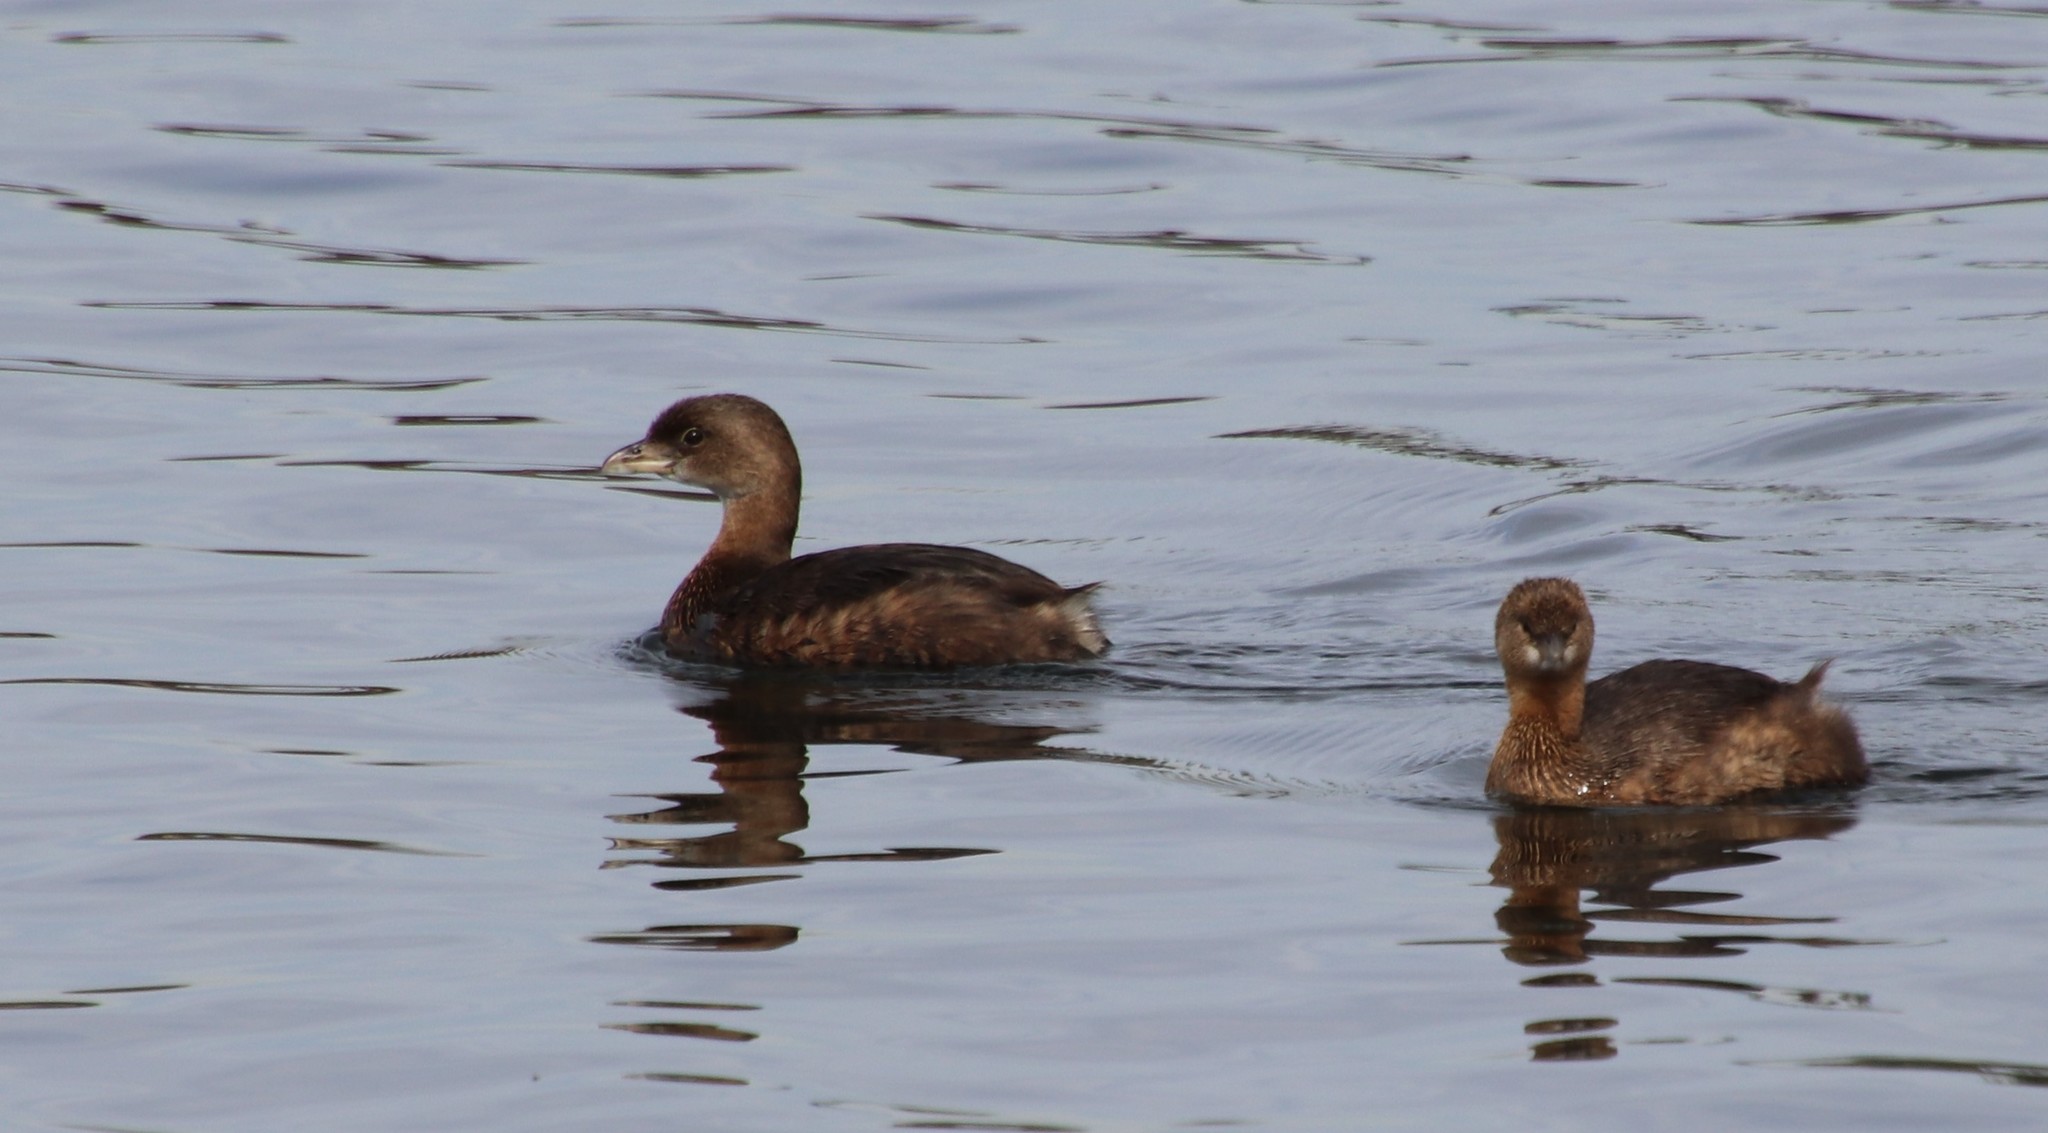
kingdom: Animalia
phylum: Chordata
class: Aves
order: Podicipediformes
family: Podicipedidae
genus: Podilymbus
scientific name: Podilymbus podiceps
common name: Pied-billed grebe
